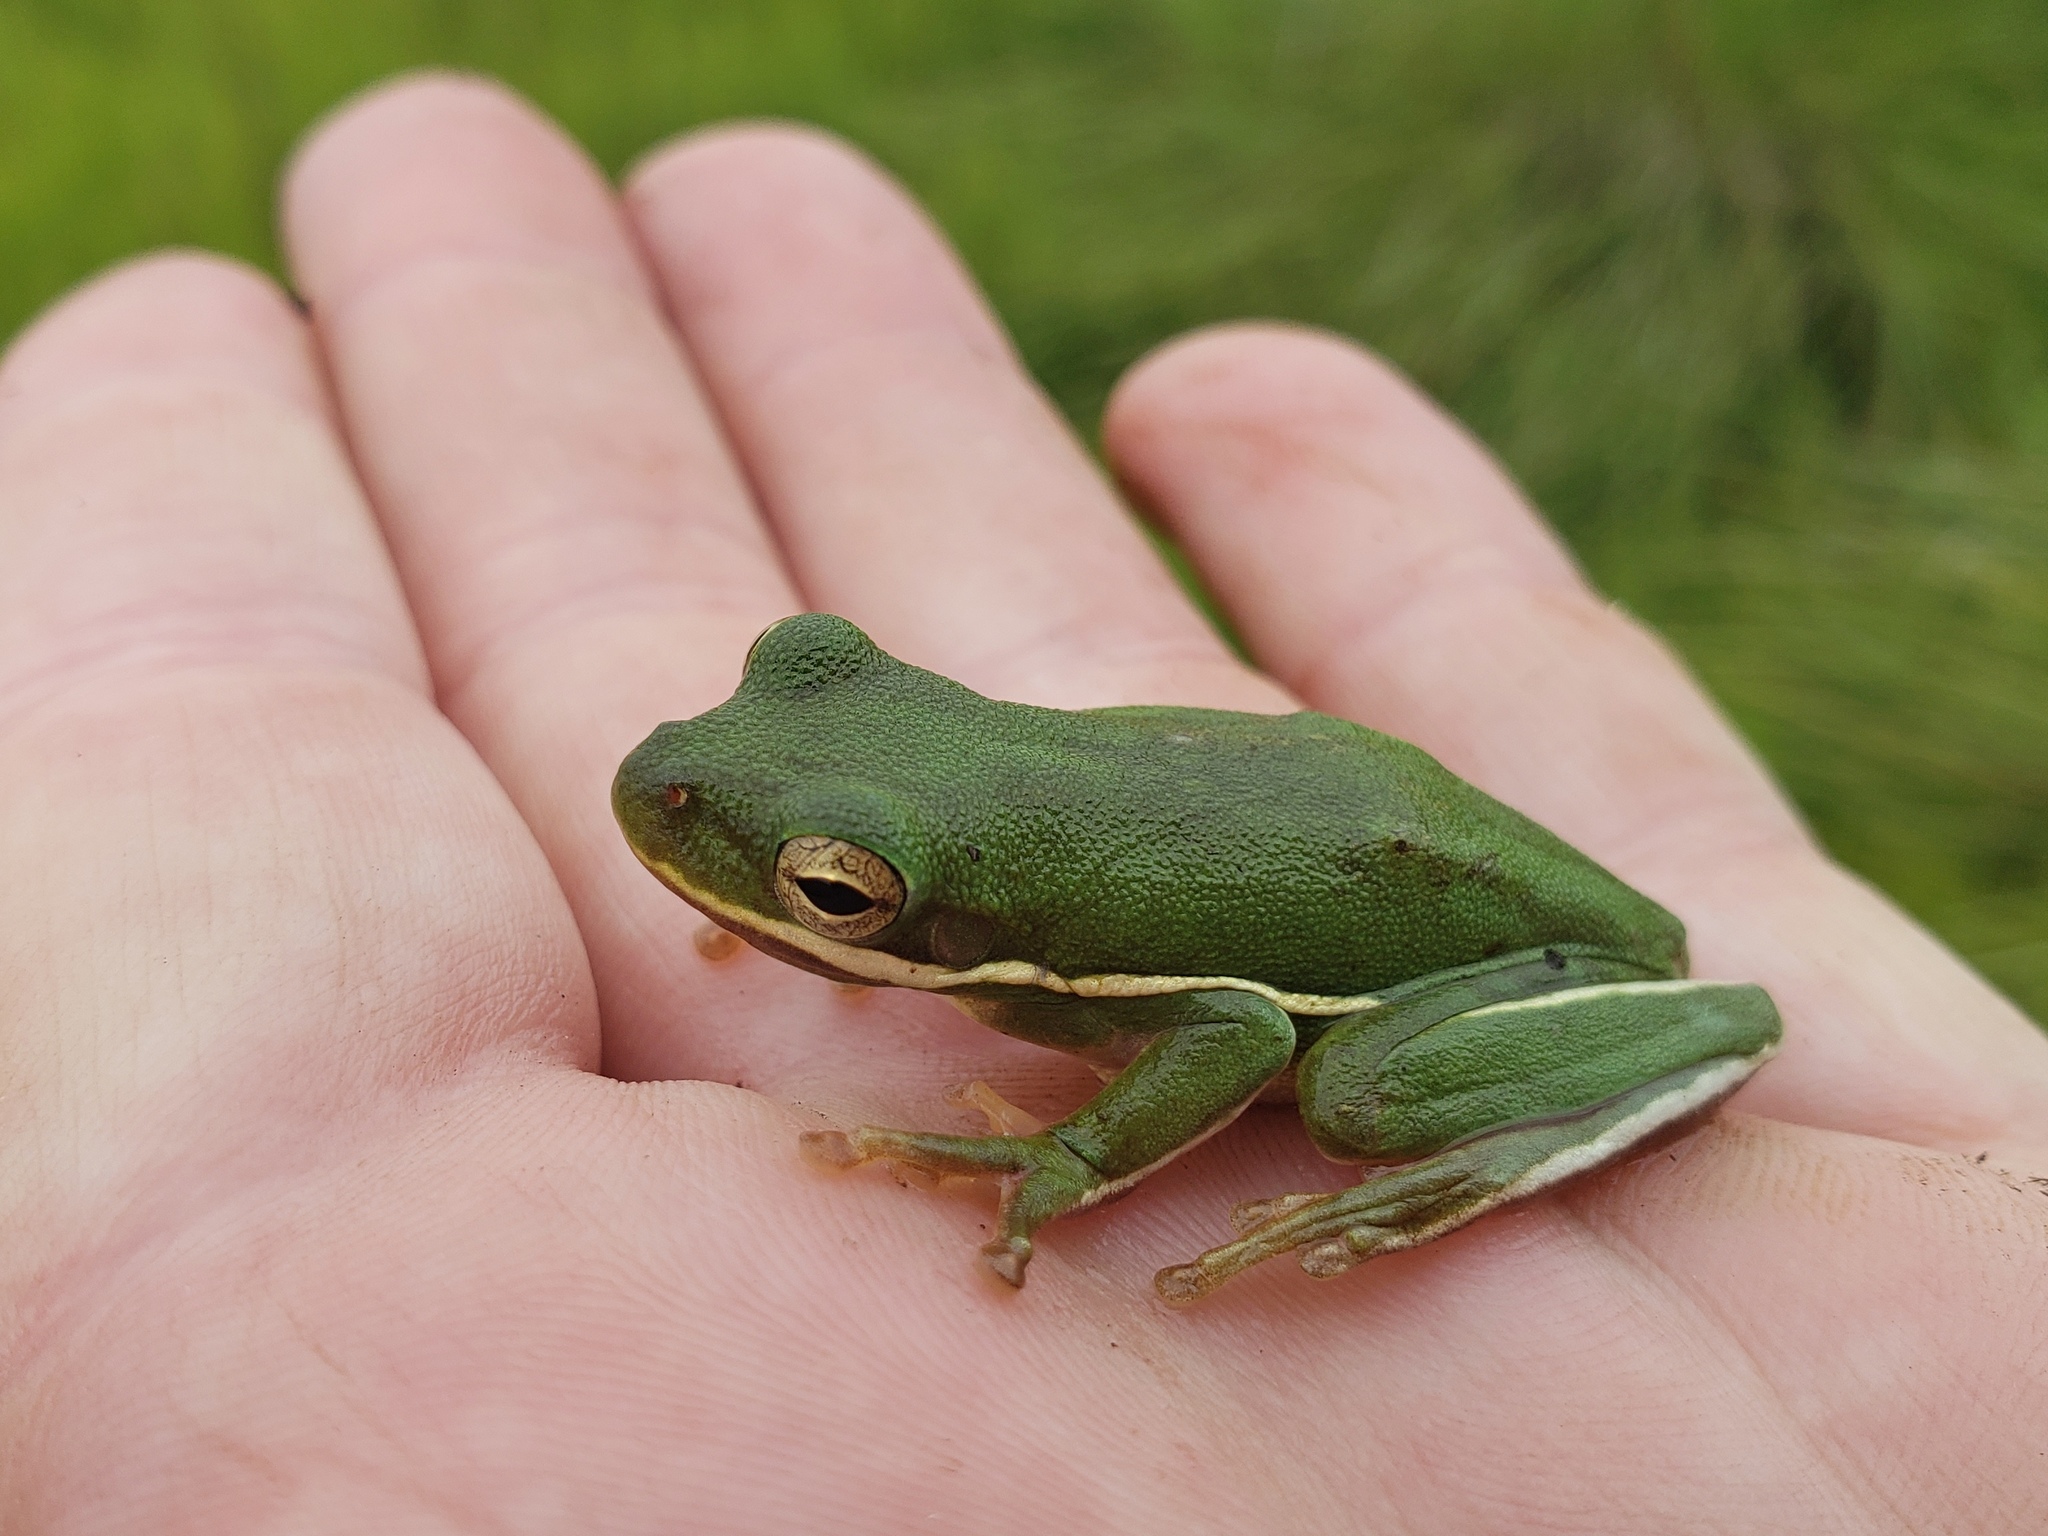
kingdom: Animalia
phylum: Chordata
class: Amphibia
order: Anura
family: Hylidae
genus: Dryophytes
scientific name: Dryophytes cinereus
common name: Green treefrog
